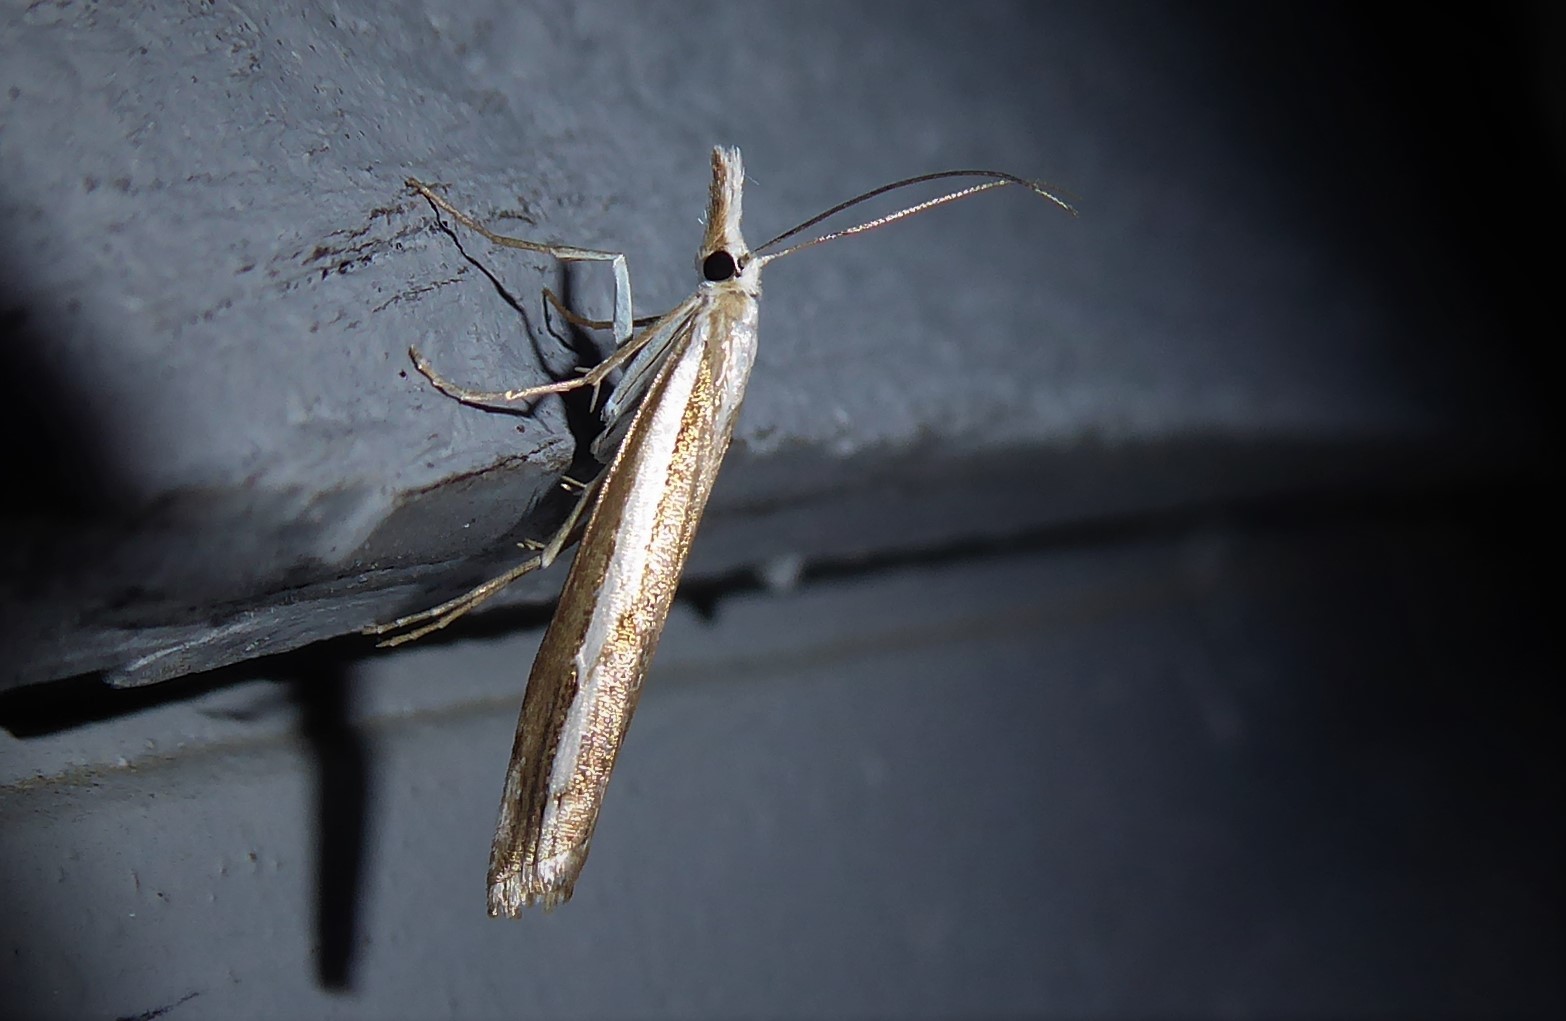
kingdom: Animalia
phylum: Arthropoda
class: Insecta
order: Lepidoptera
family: Crambidae
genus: Orocrambus
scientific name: Orocrambus vittellus
